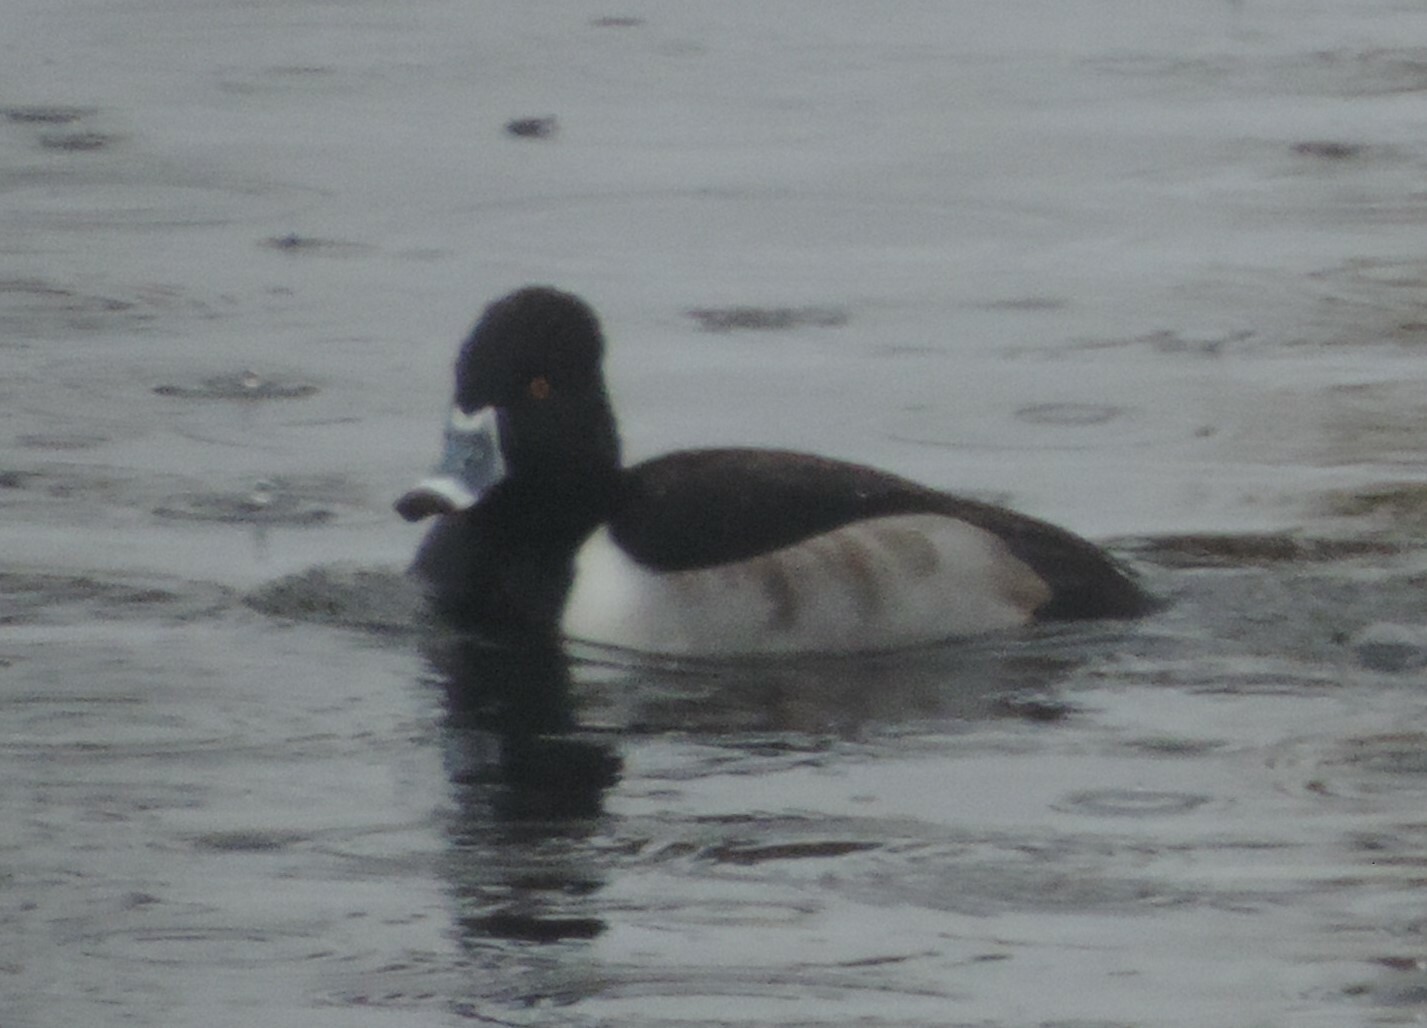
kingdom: Animalia
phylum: Chordata
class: Aves
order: Anseriformes
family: Anatidae
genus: Aythya
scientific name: Aythya collaris
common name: Ring-necked duck
